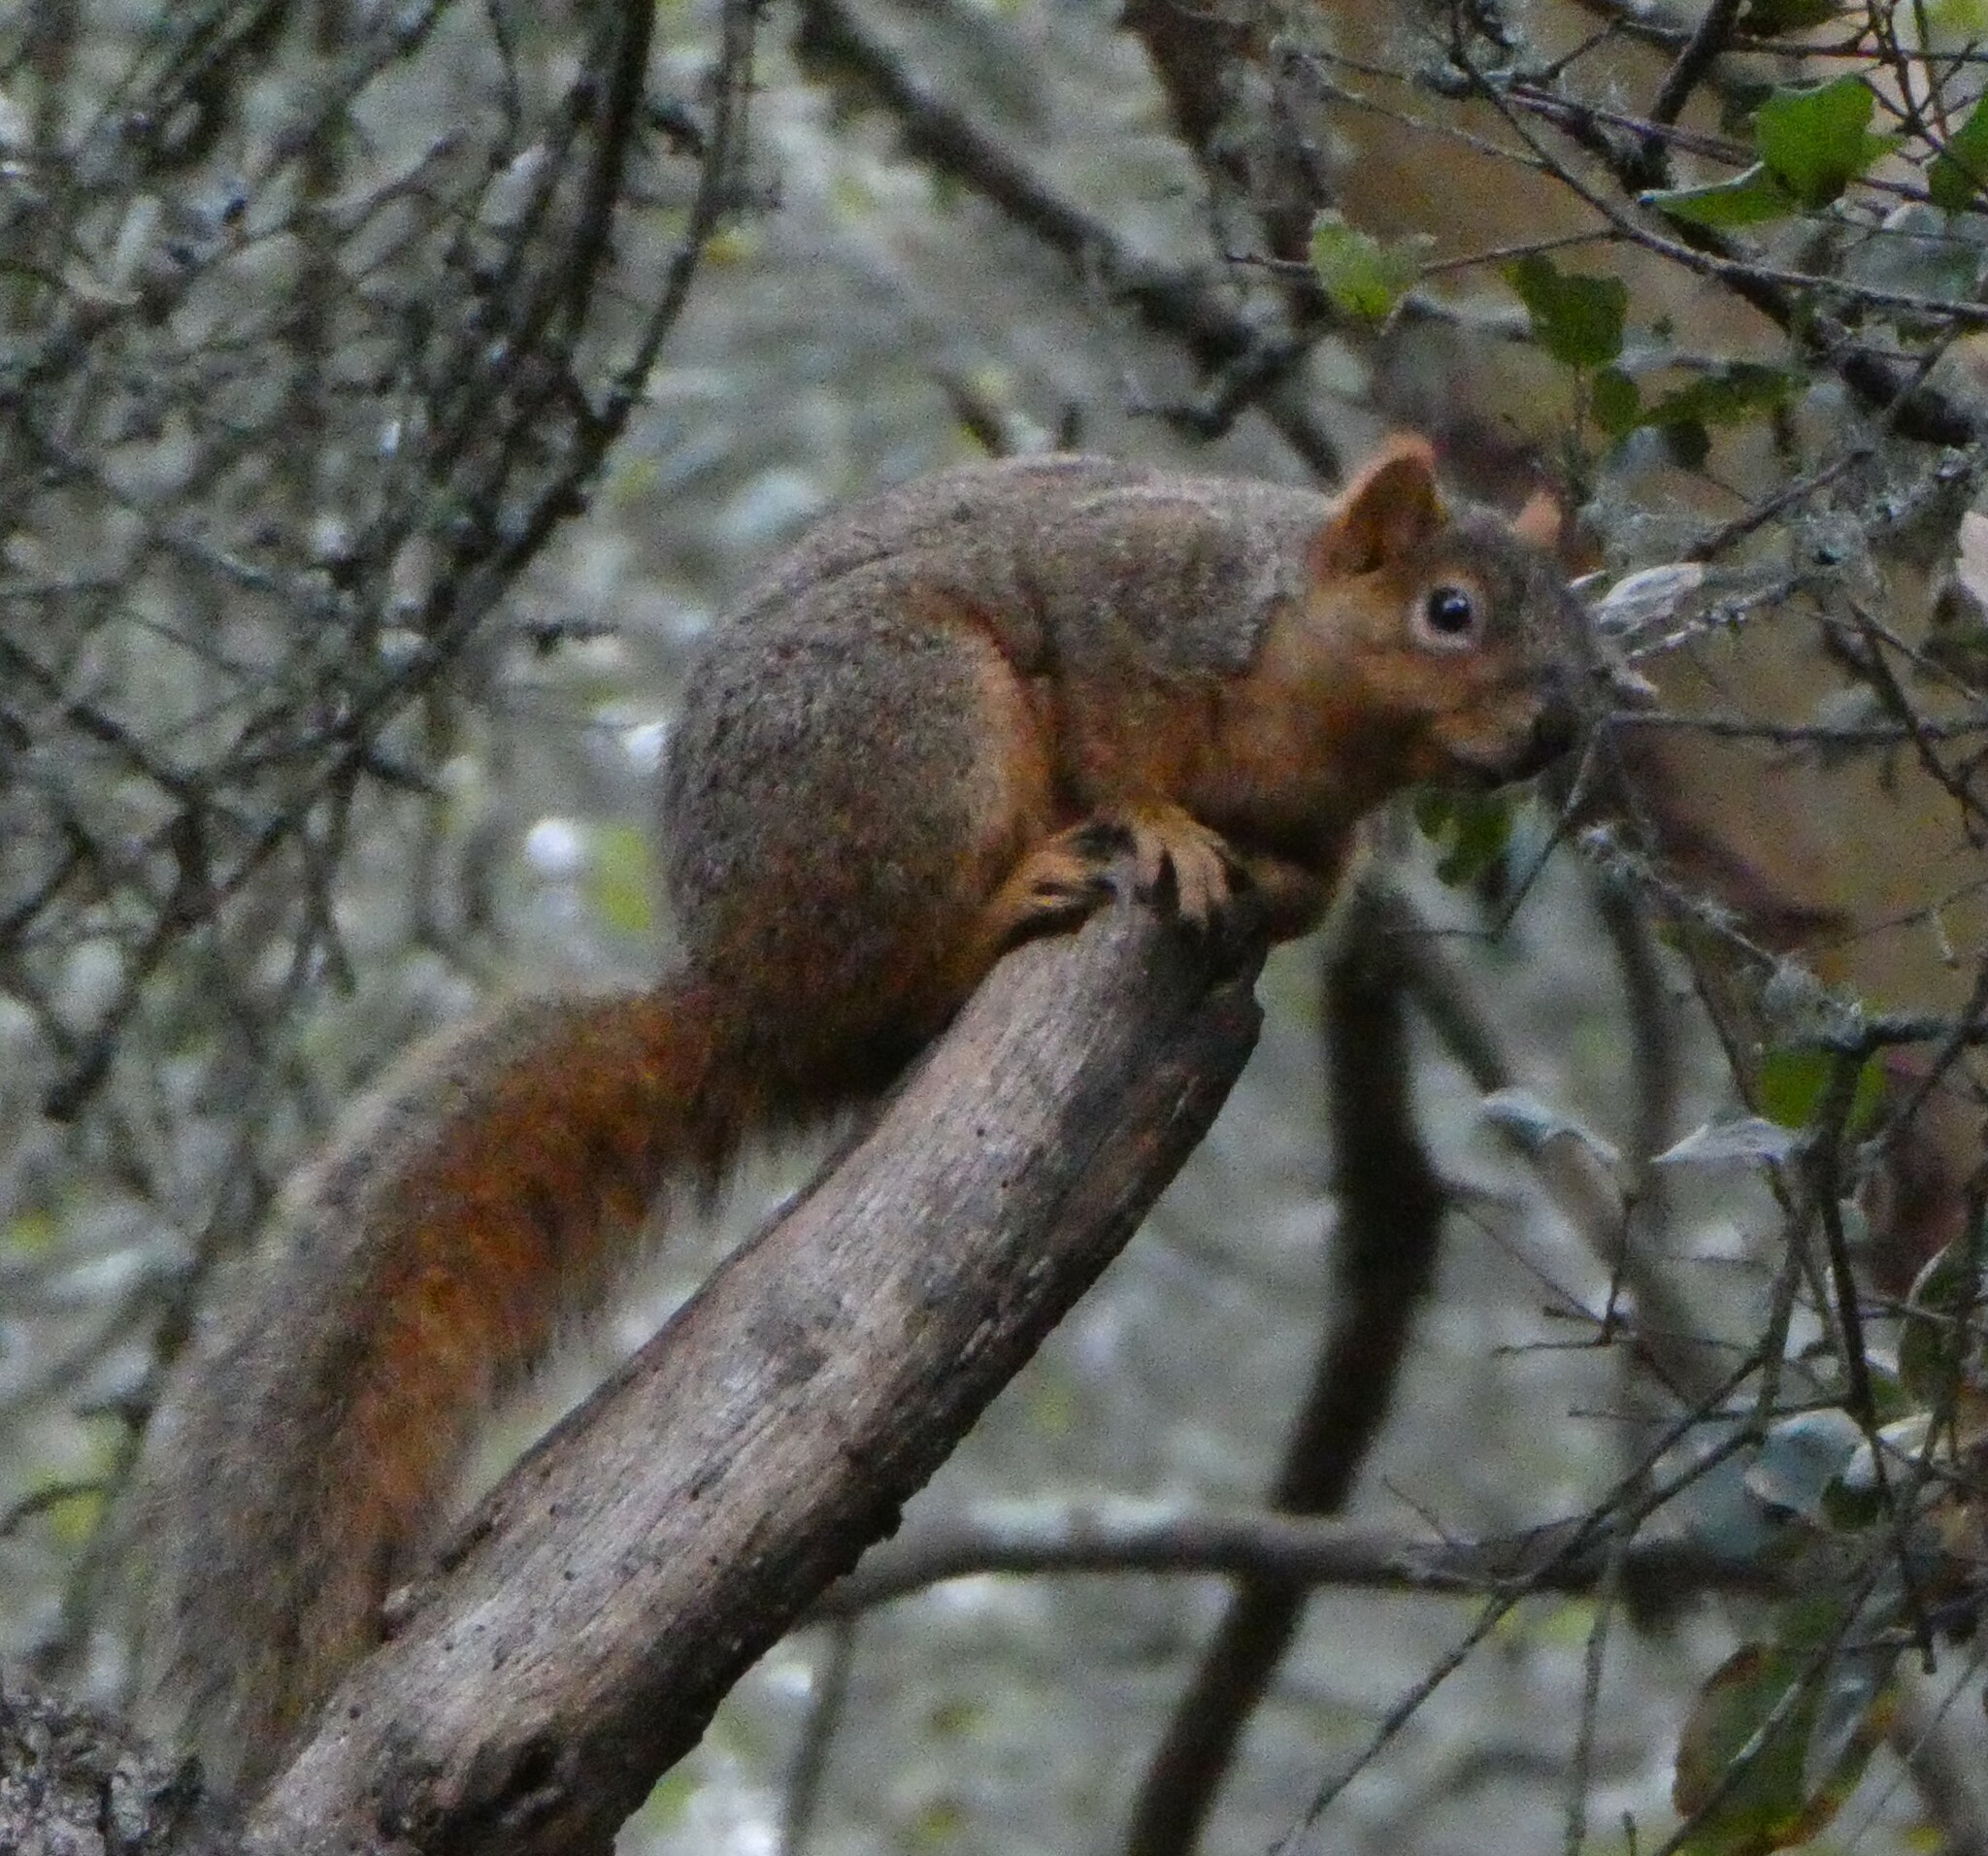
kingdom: Animalia
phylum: Chordata
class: Mammalia
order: Rodentia
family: Sciuridae
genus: Sciurus
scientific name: Sciurus niger
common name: Fox squirrel
